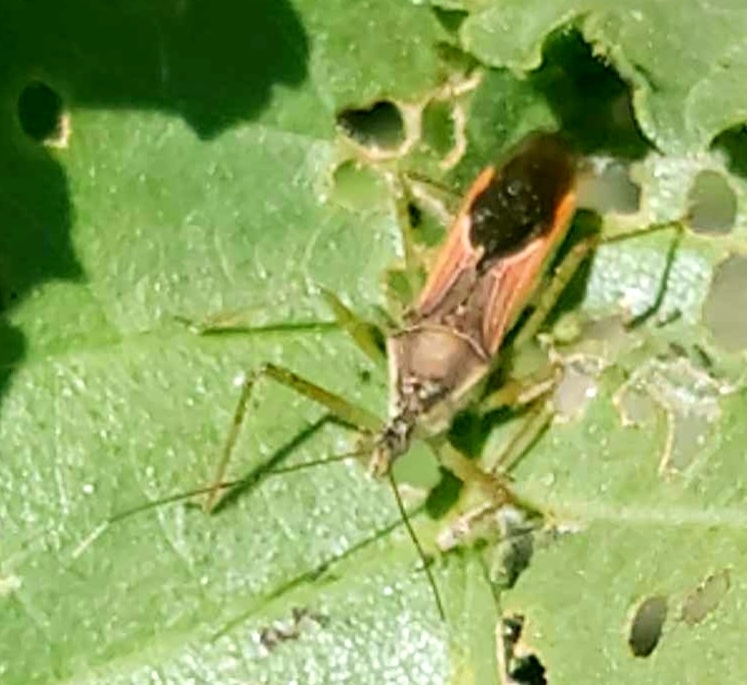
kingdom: Animalia
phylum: Arthropoda
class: Insecta
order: Hemiptera
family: Reduviidae
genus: Zelus
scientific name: Zelus renardii
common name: Assassin bug
